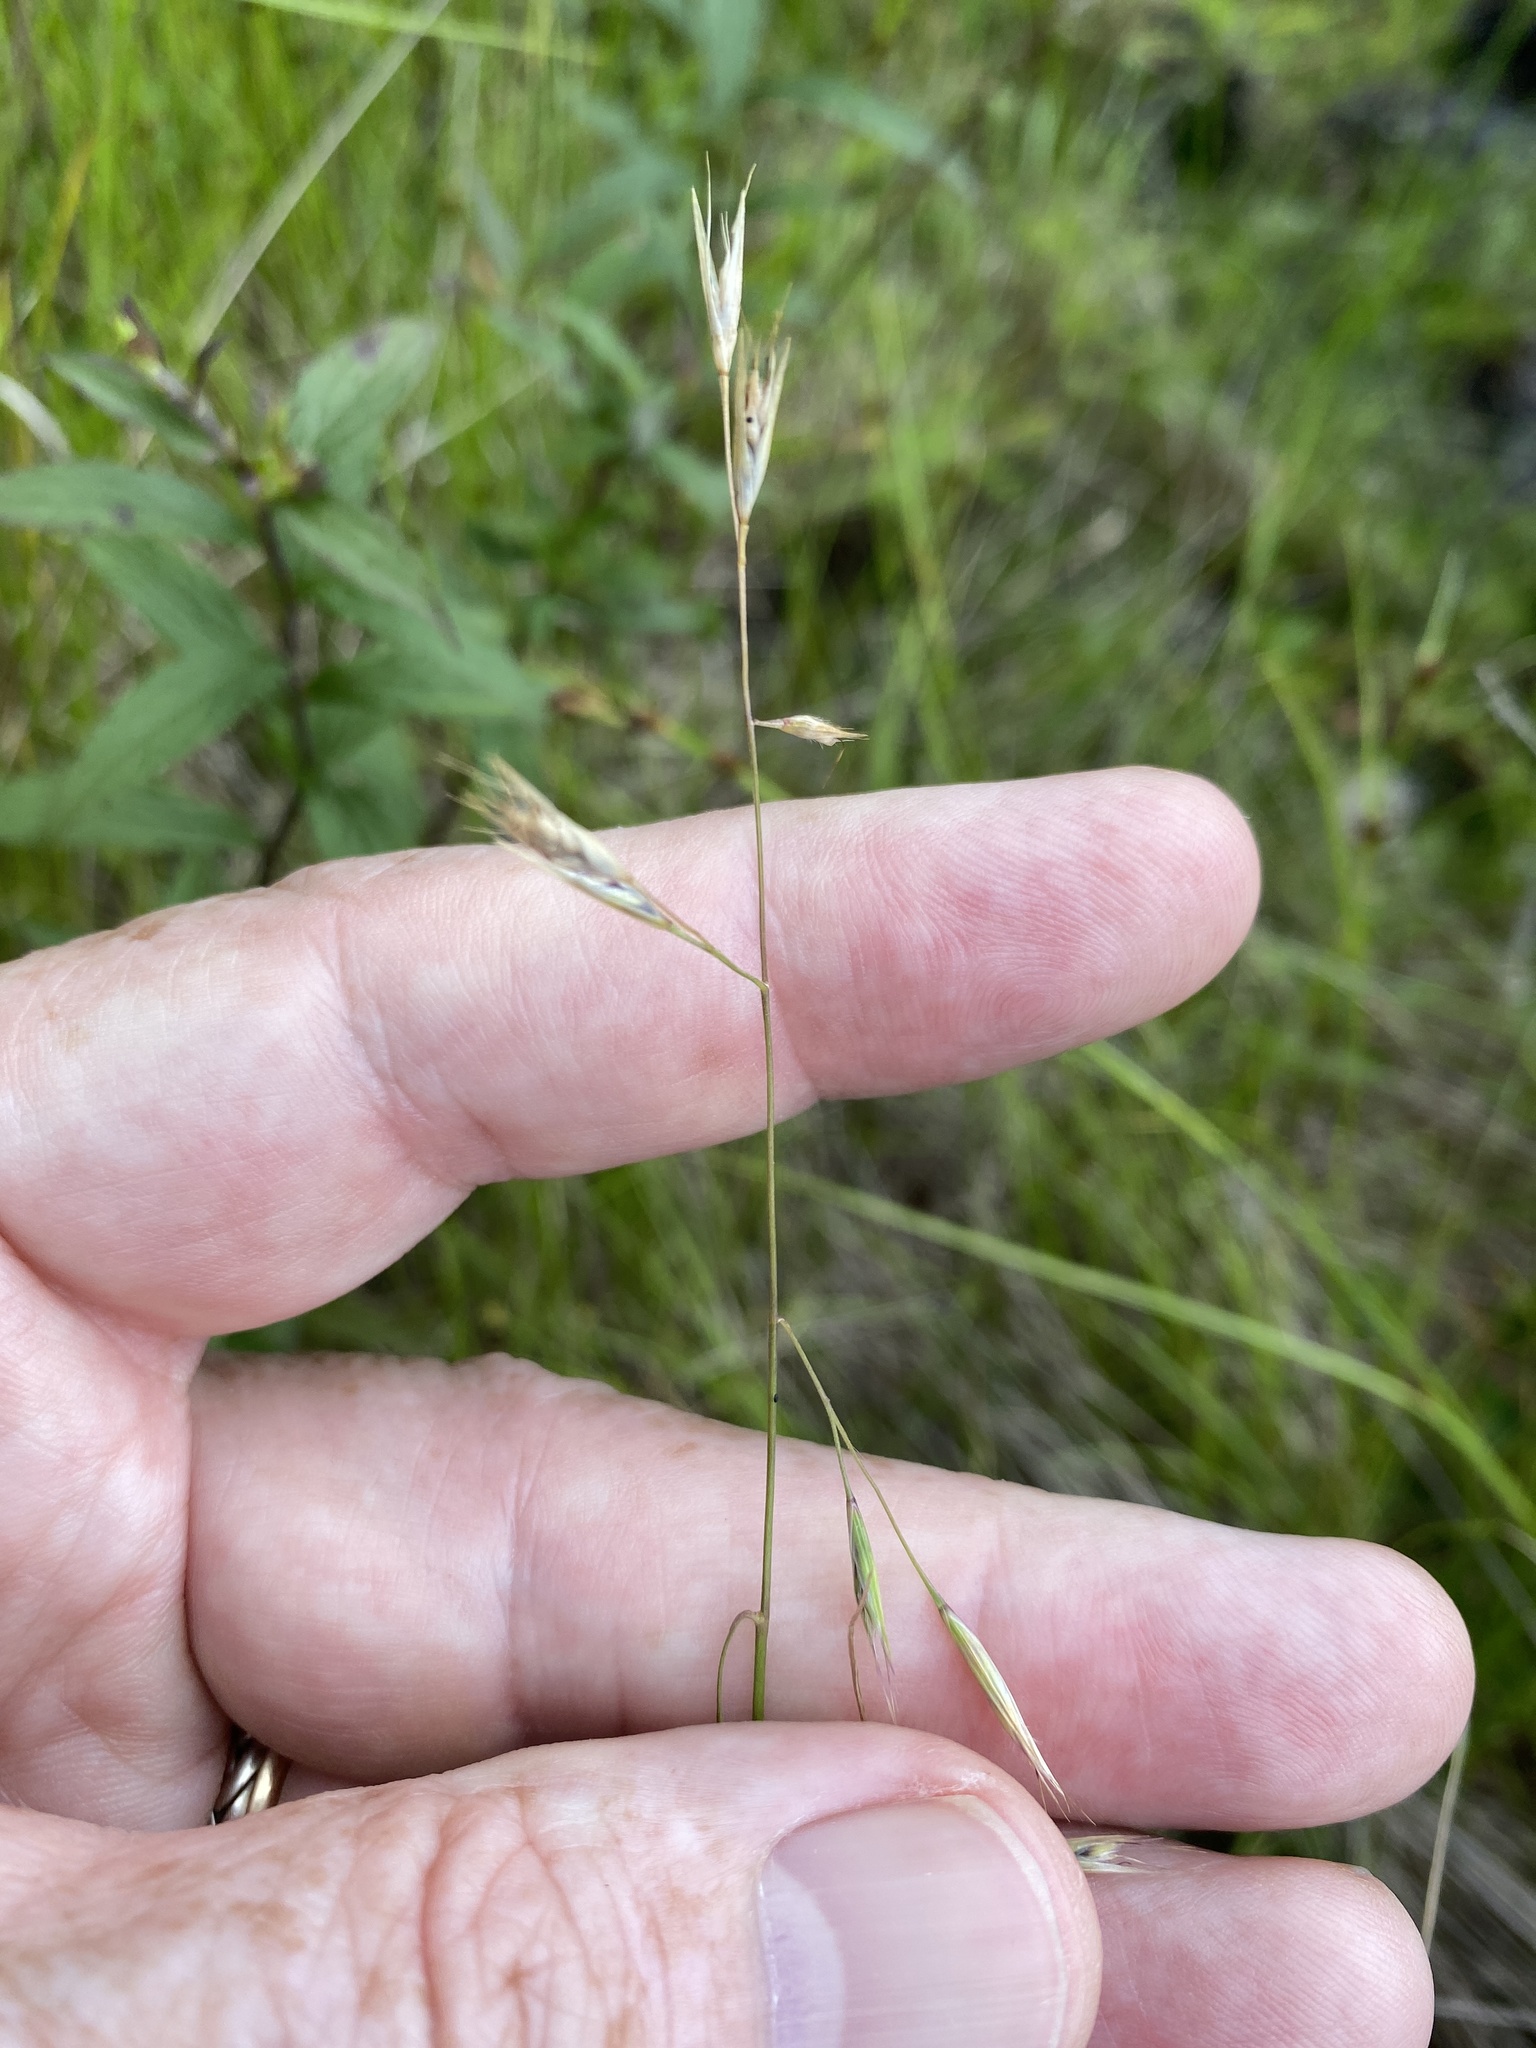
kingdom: Plantae
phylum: Tracheophyta
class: Liliopsida
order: Poales
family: Poaceae
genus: Danthonia
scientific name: Danthonia compressa
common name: Flat-stem oat grass
